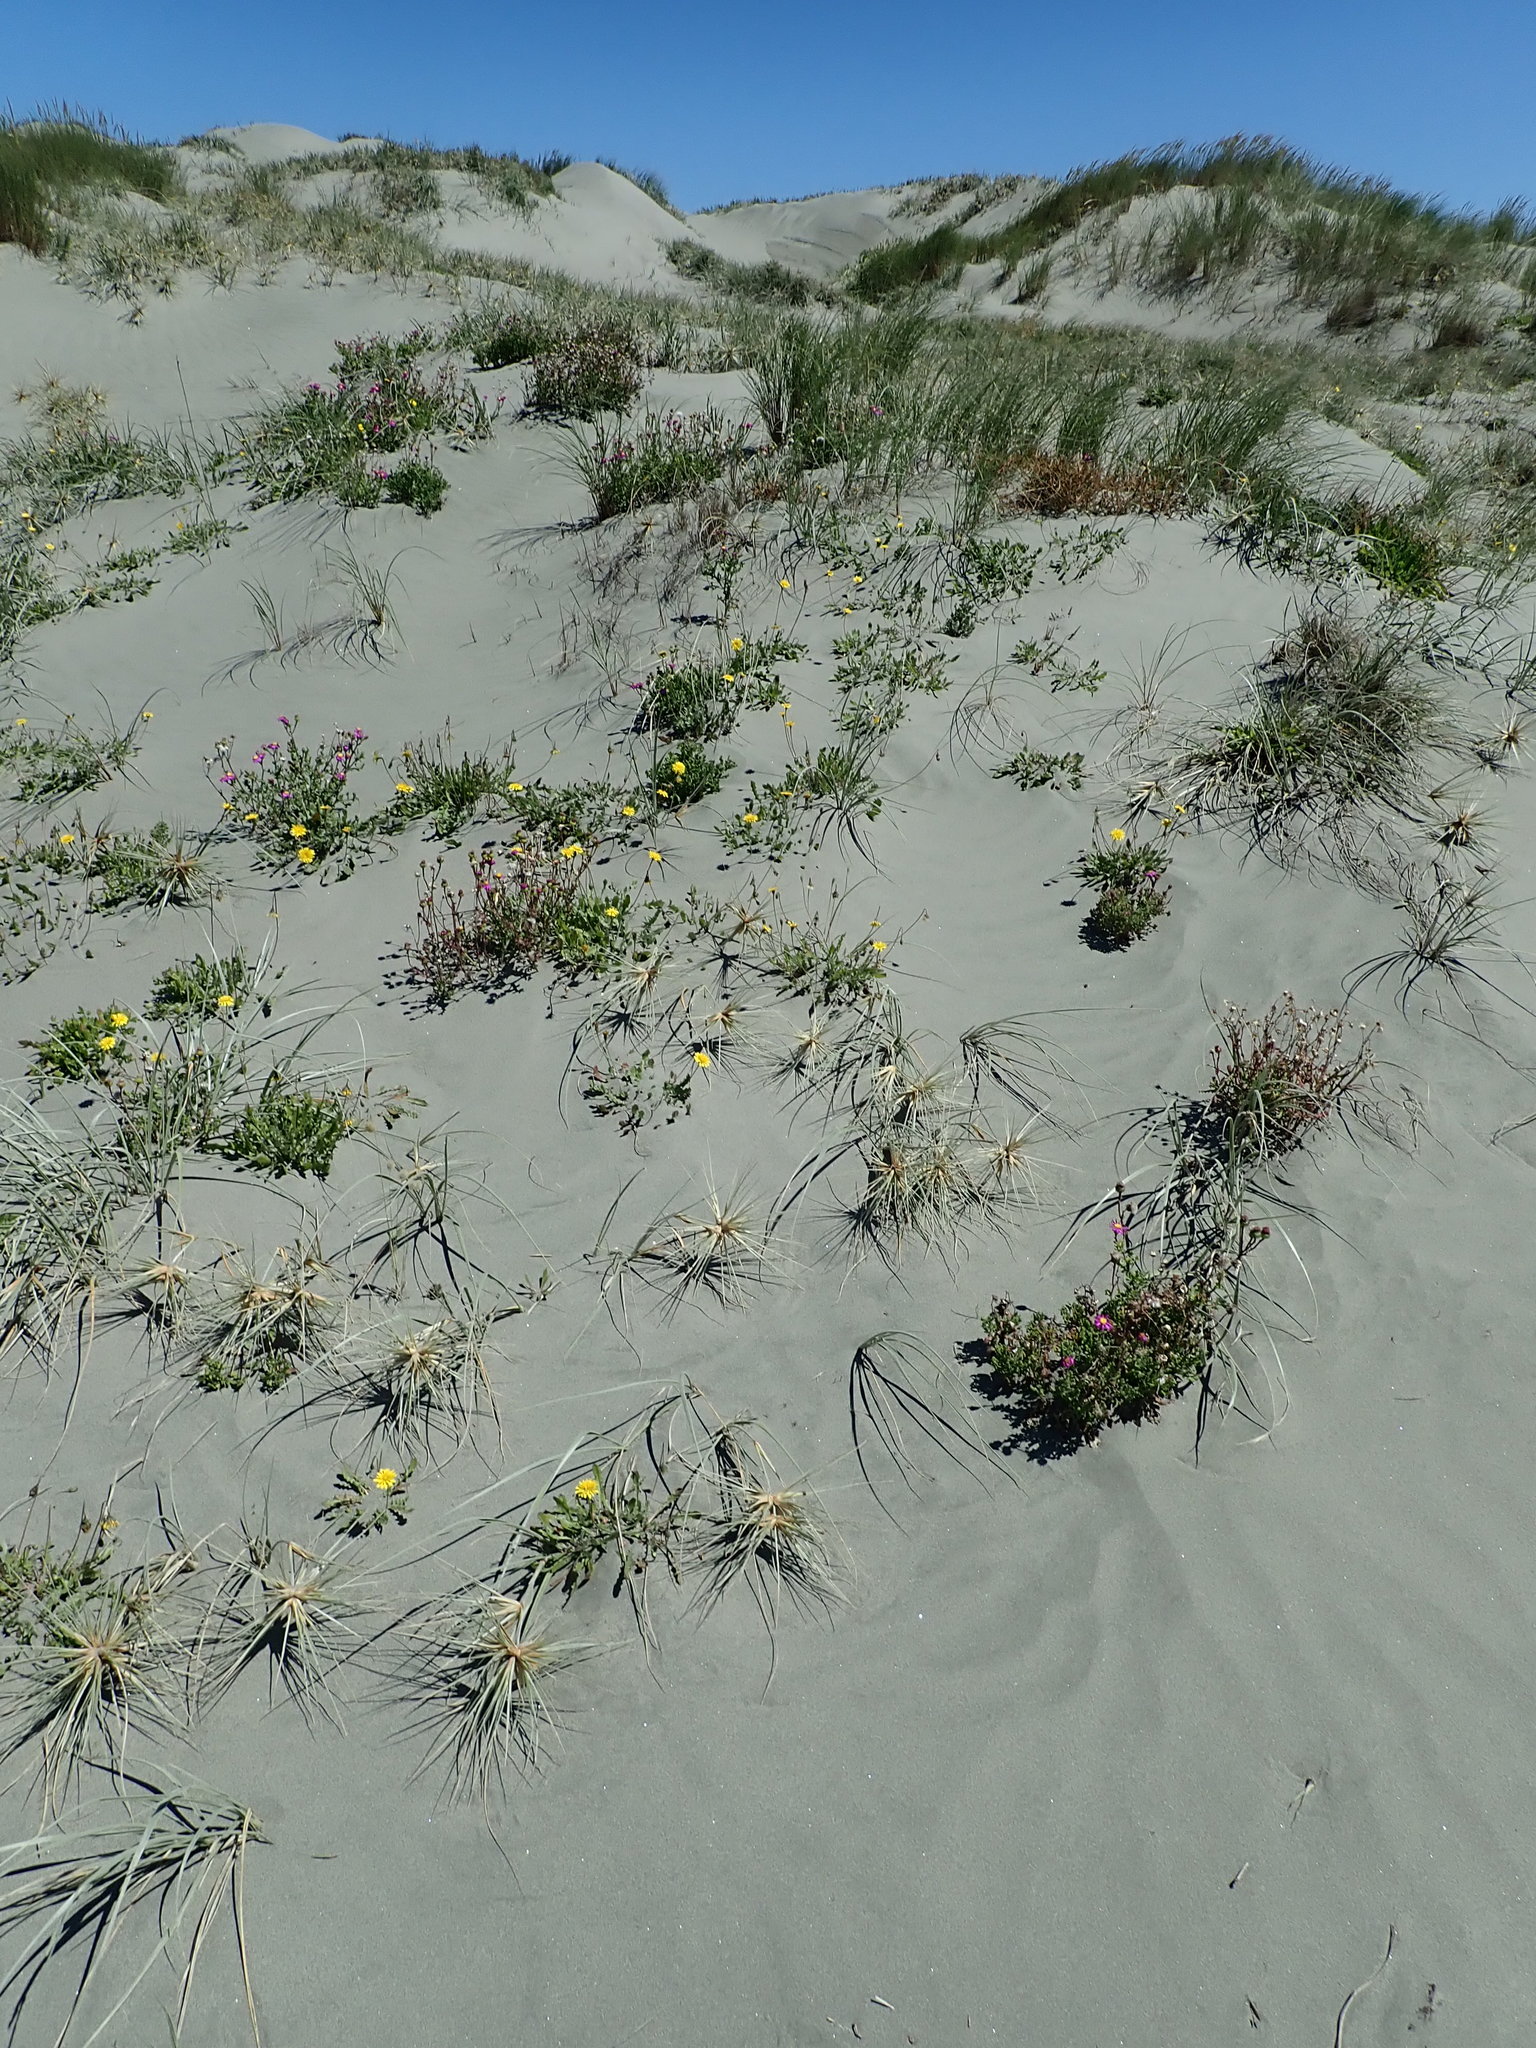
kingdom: Plantae
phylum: Tracheophyta
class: Magnoliopsida
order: Asterales
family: Asteraceae
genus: Senecio
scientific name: Senecio elegans
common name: Purple groundsel
